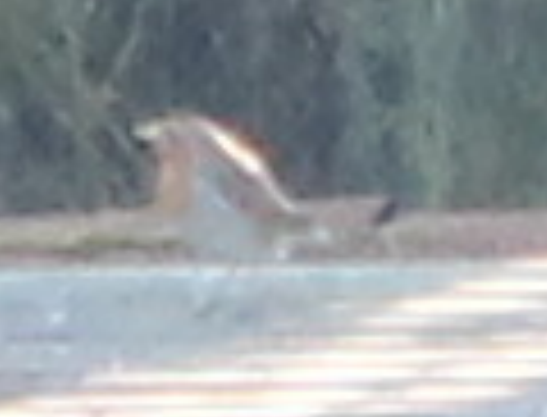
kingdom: Animalia
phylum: Chordata
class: Aves
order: Passeriformes
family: Muscicapidae
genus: Erithacus
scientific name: Erithacus rubecula
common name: European robin
